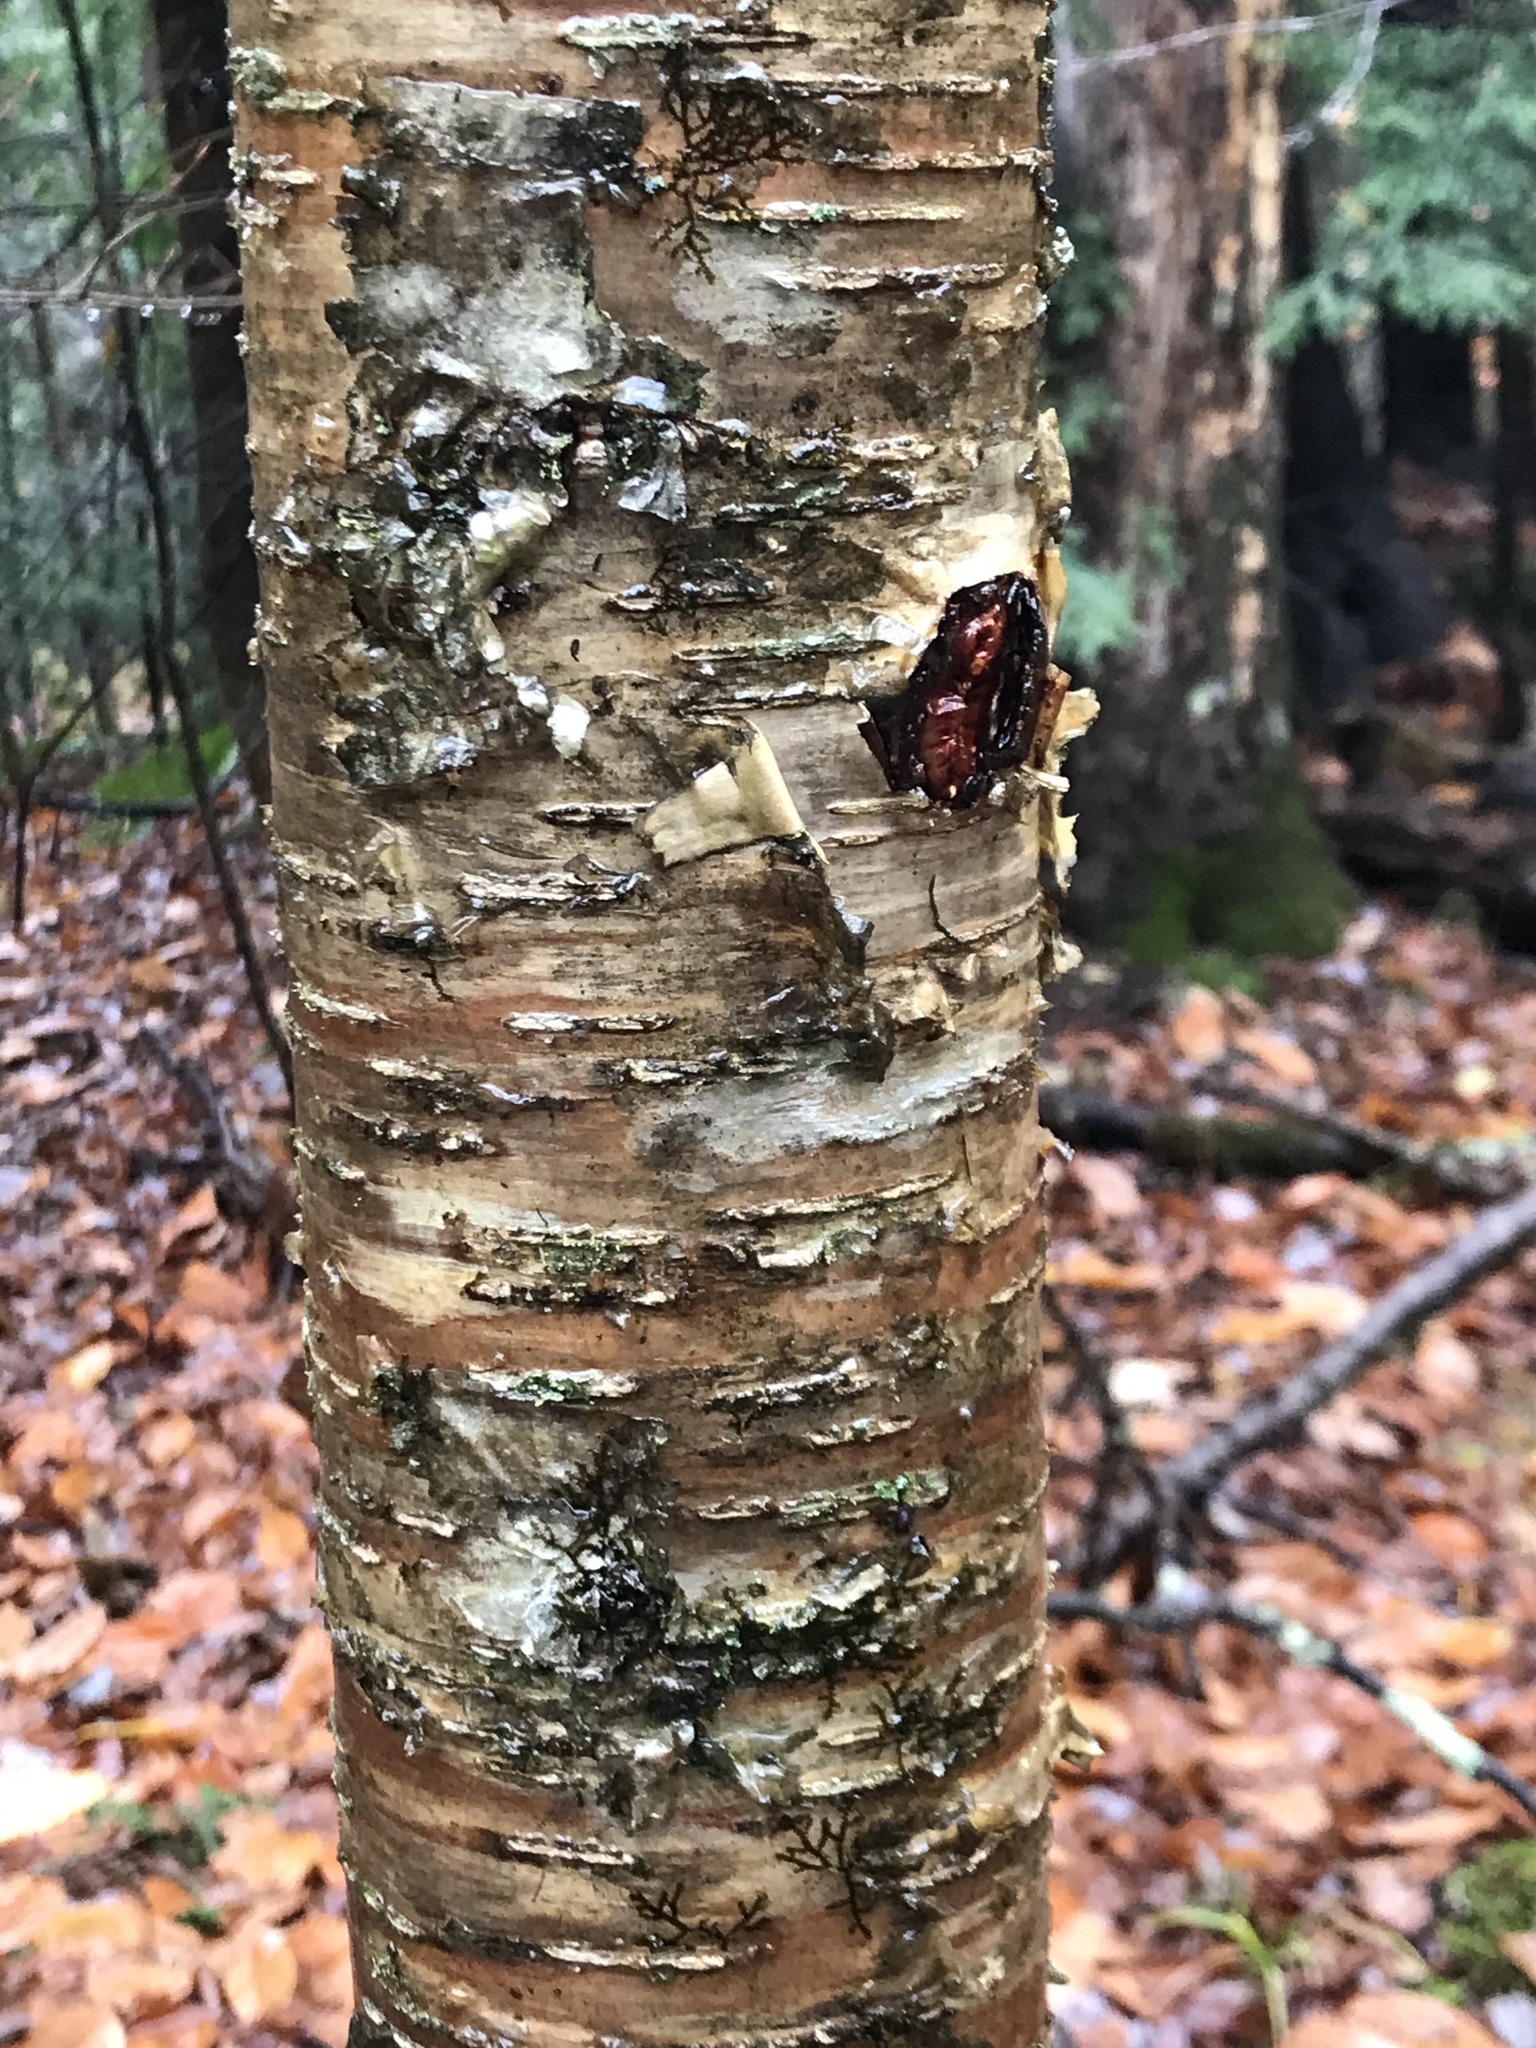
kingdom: Plantae
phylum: Tracheophyta
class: Magnoliopsida
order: Fagales
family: Betulaceae
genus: Betula
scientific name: Betula alleghaniensis
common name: Yellow birch
